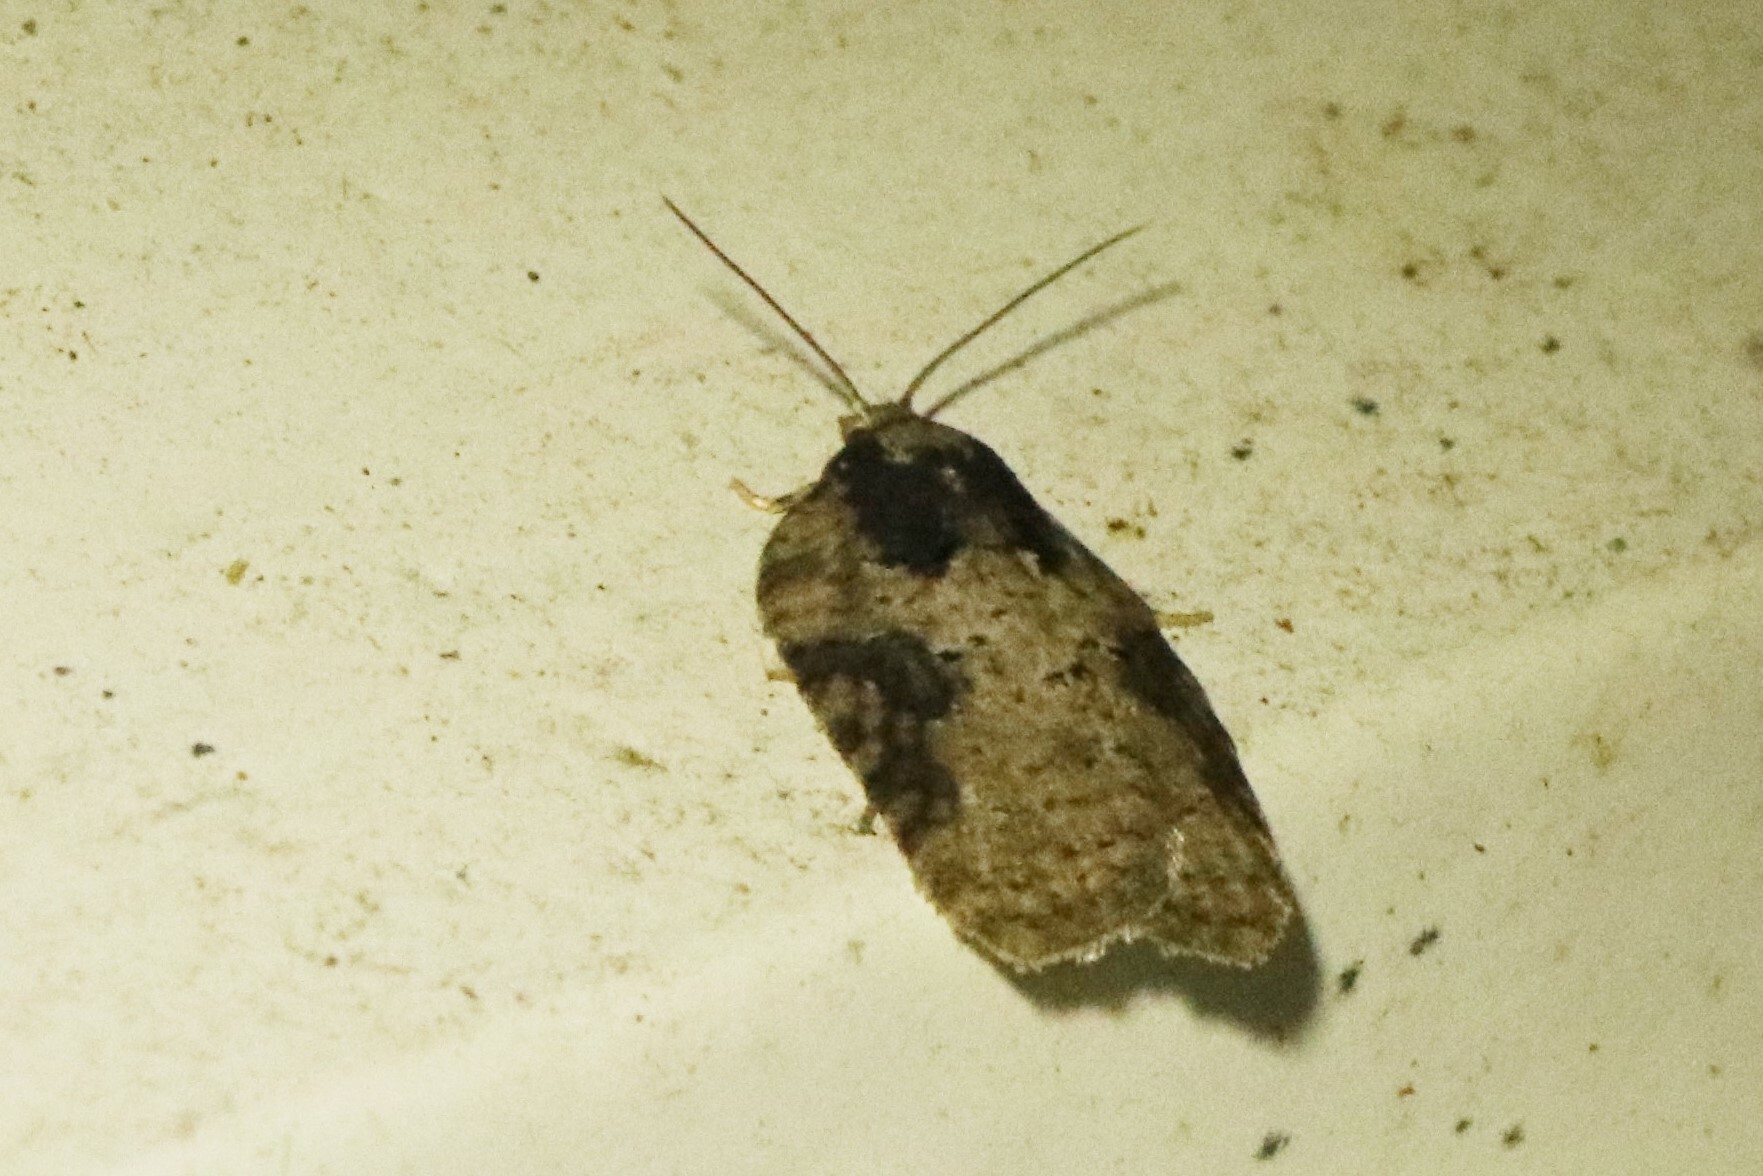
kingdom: Animalia
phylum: Arthropoda
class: Insecta
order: Lepidoptera
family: Tortricidae
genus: Acleris
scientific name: Acleris chalybeana
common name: Lesser maple leafroller
